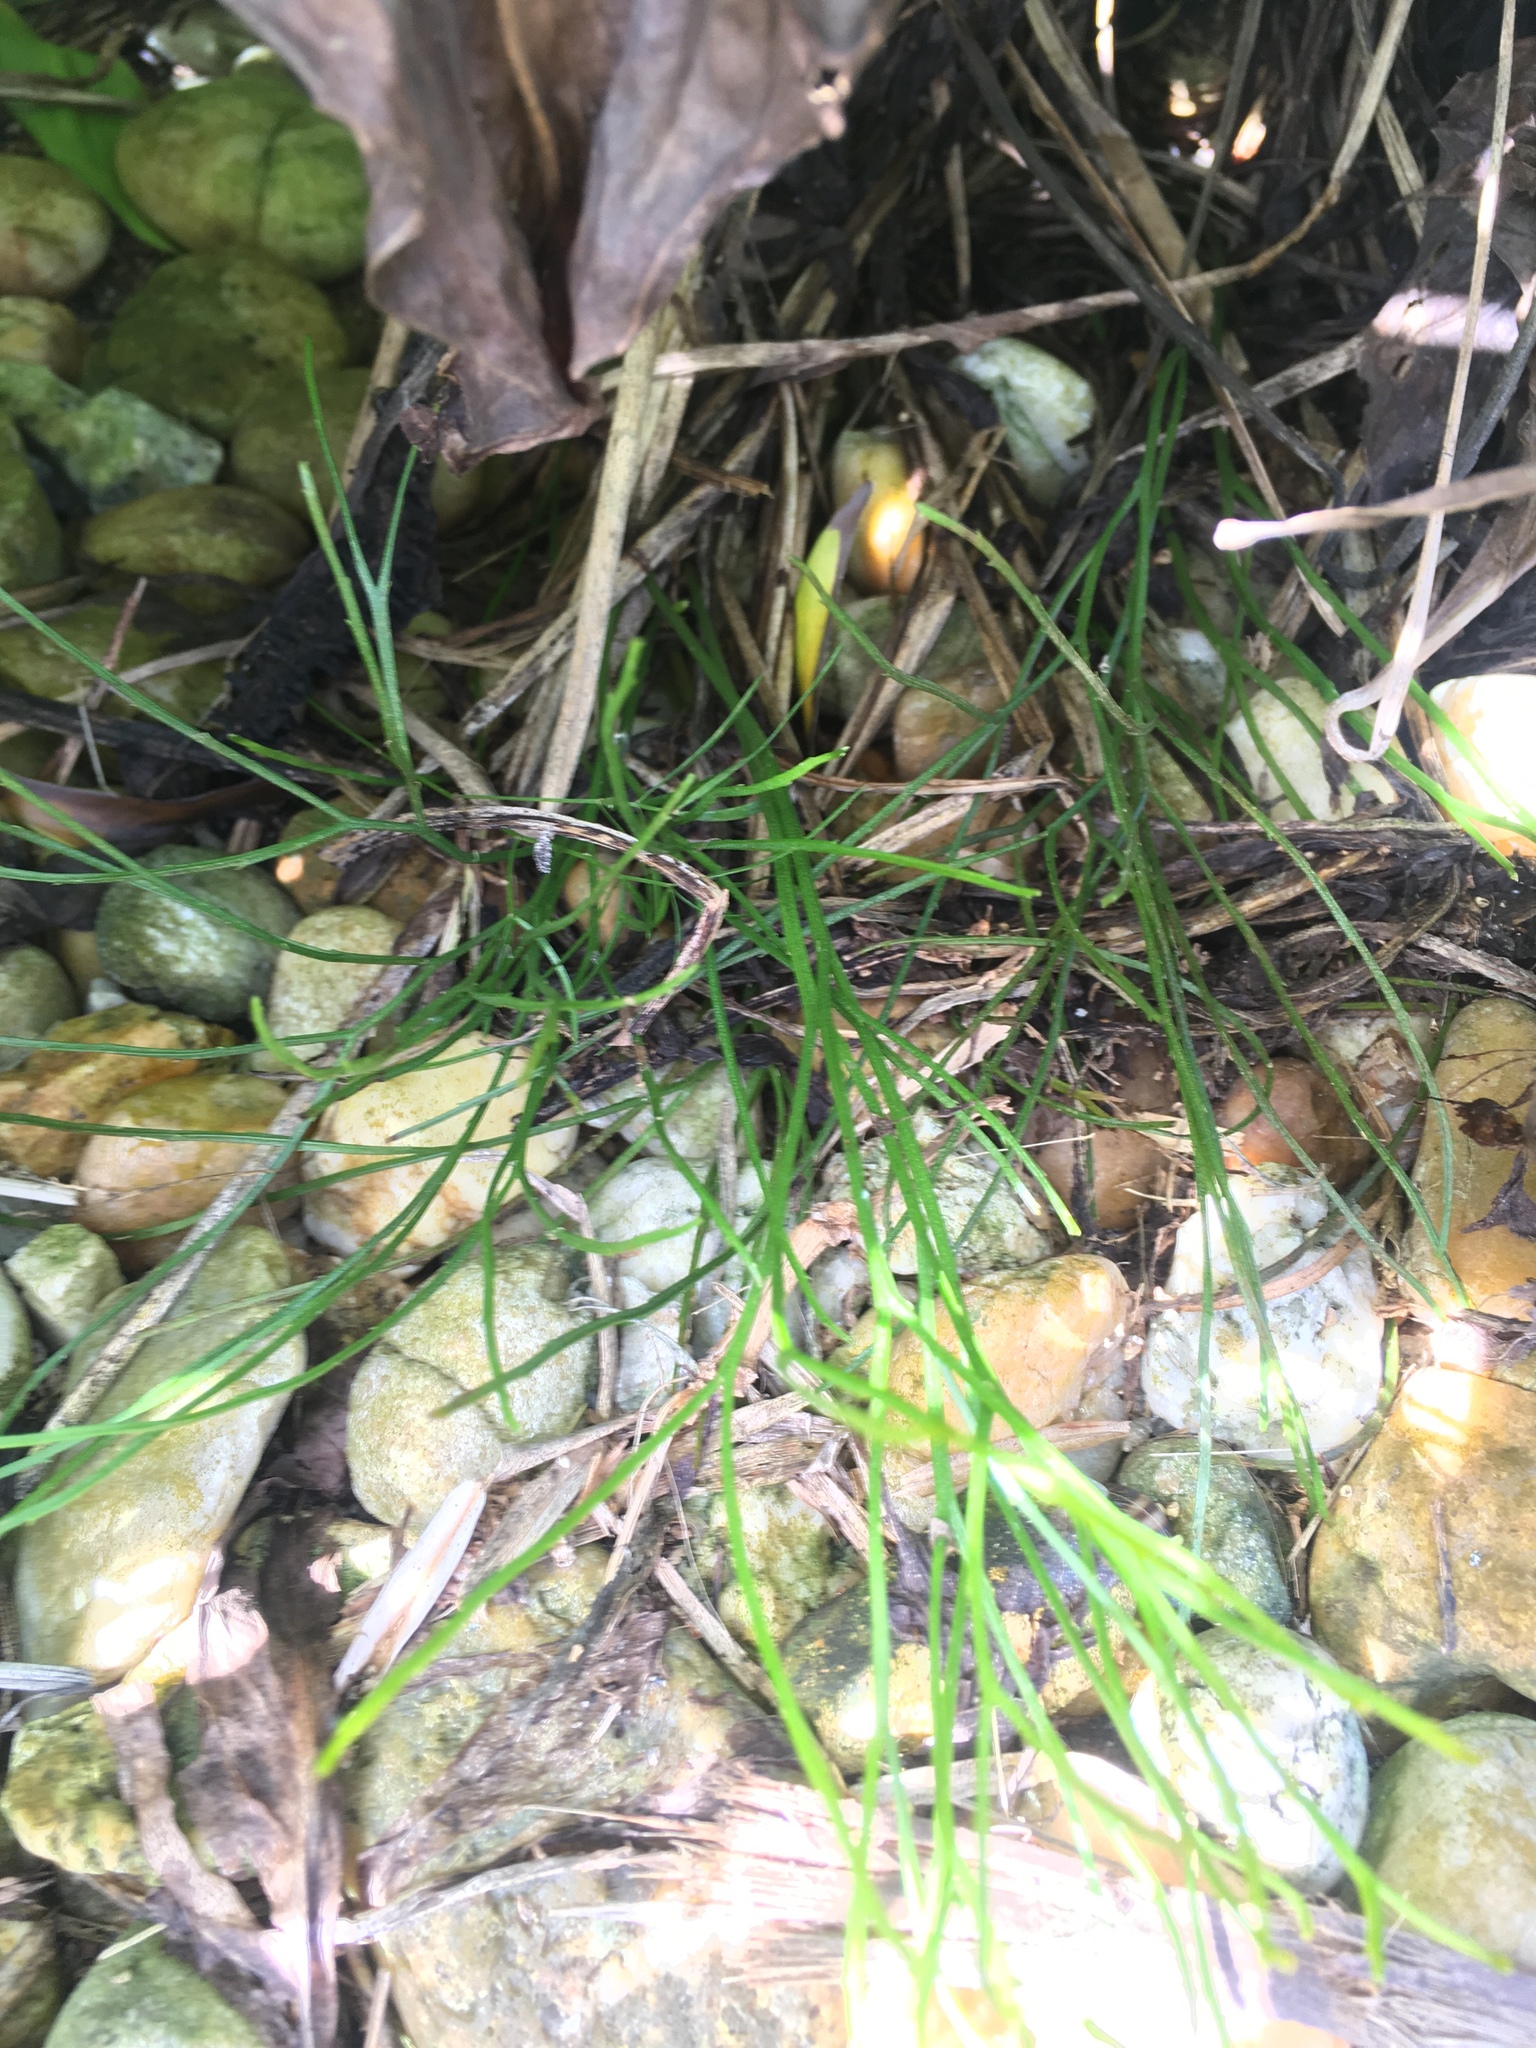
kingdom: Plantae
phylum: Tracheophyta
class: Polypodiopsida
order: Psilotales
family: Psilotaceae
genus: Psilotum
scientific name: Psilotum nudum
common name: Skeleton fork fern
